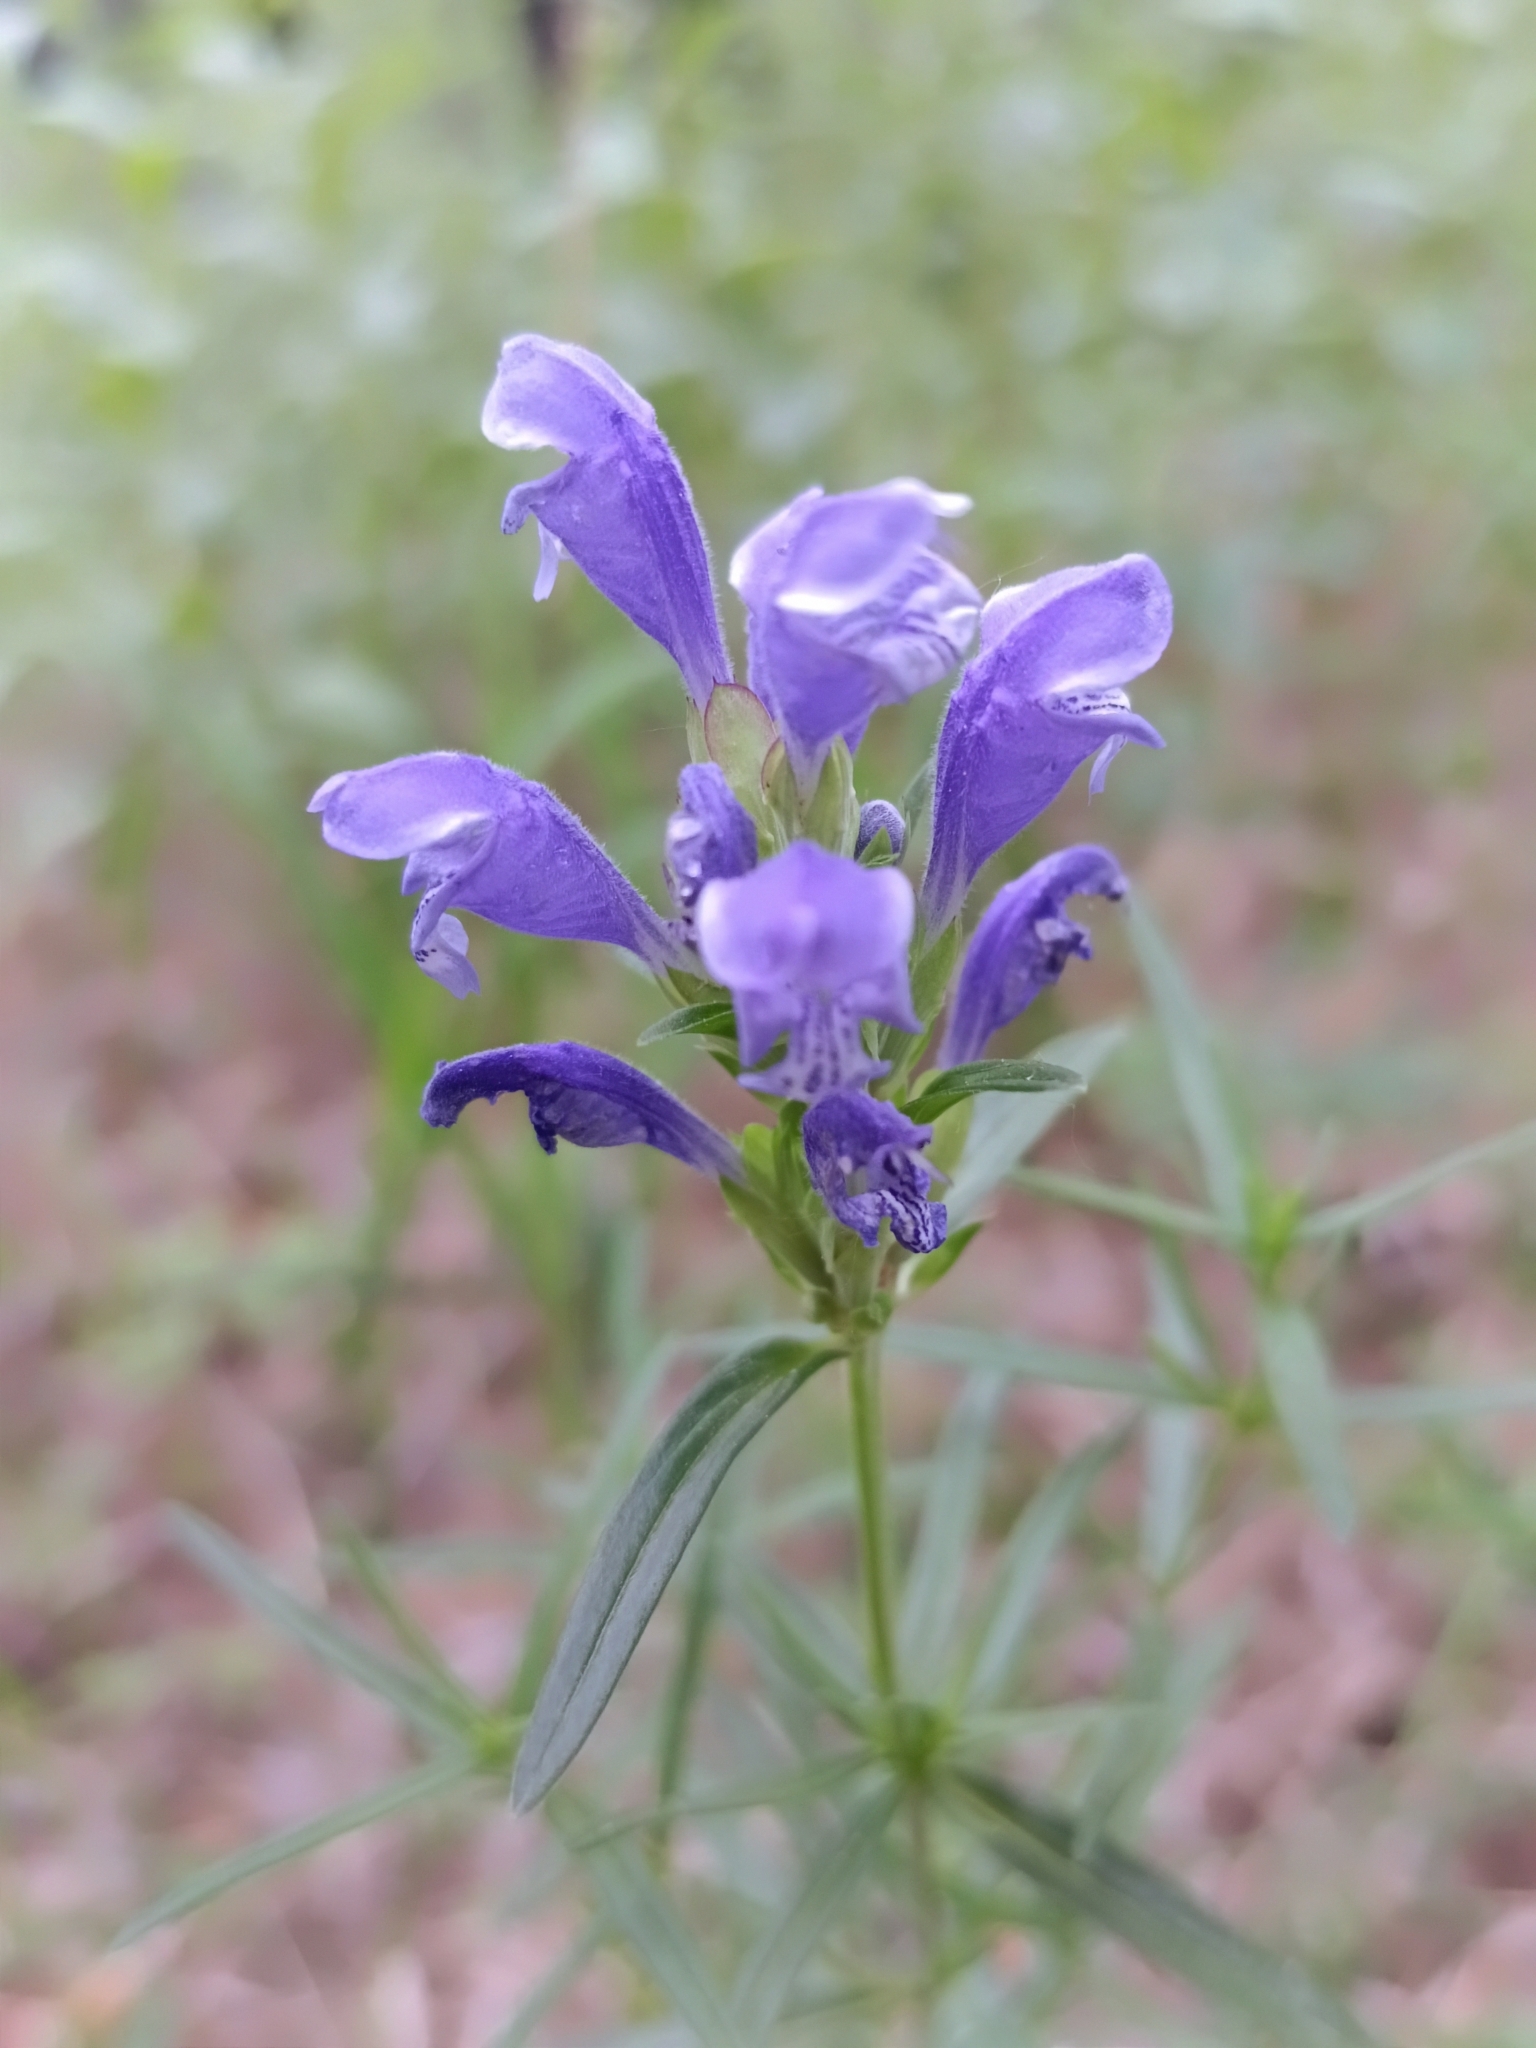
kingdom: Plantae
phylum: Tracheophyta
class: Magnoliopsida
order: Lamiales
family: Lamiaceae
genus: Dracocephalum
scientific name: Dracocephalum ruyschiana
